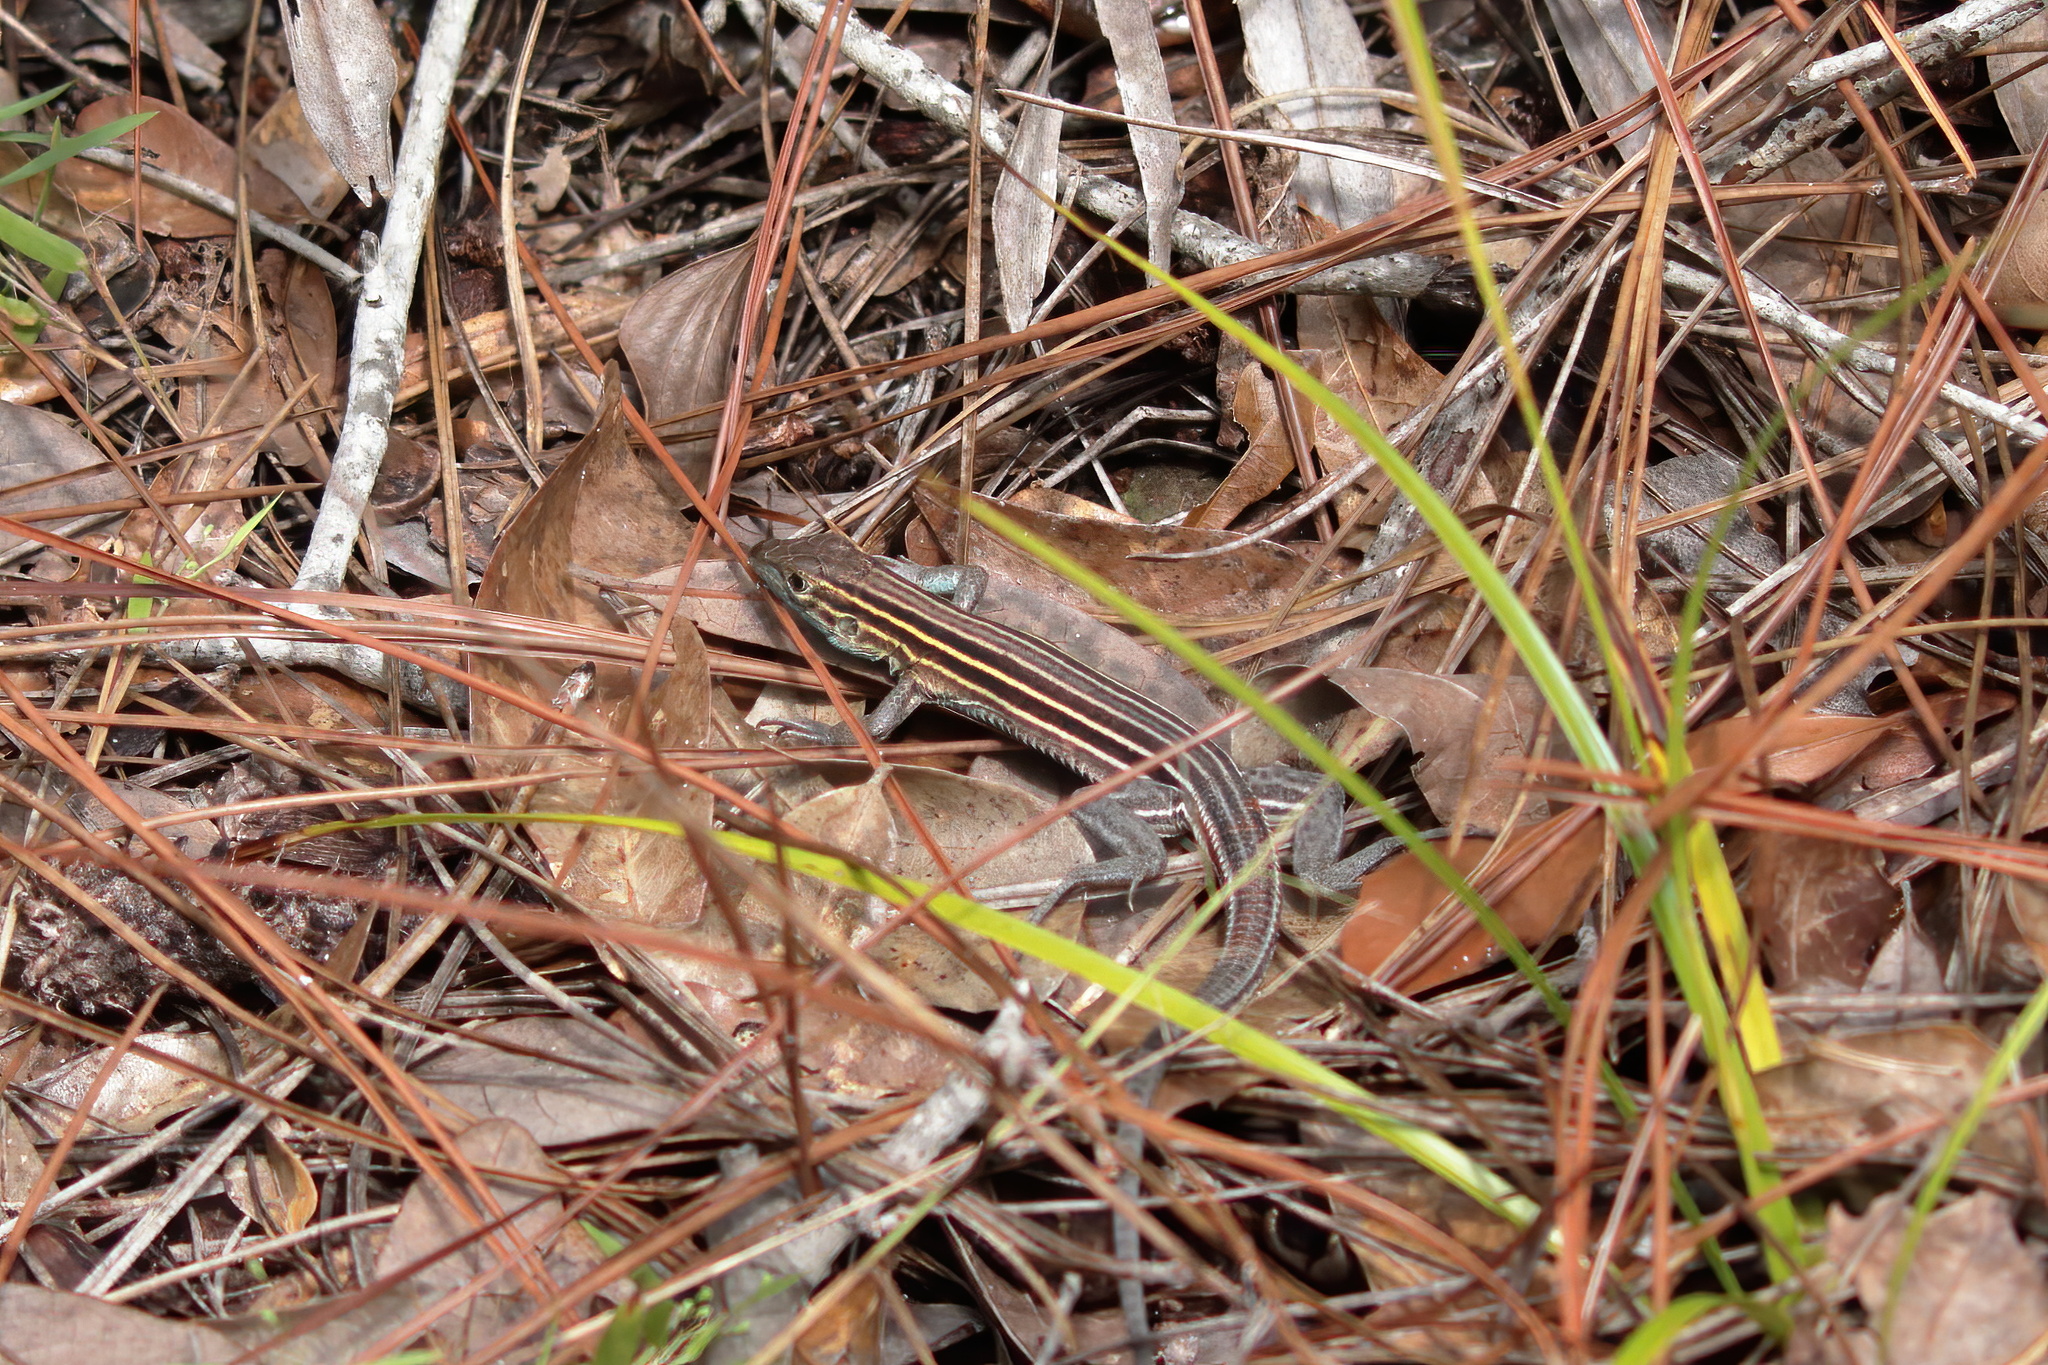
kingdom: Animalia
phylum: Chordata
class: Squamata
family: Teiidae
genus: Aspidoscelis
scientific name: Aspidoscelis sexlineatus
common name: Six-lined racerunner
